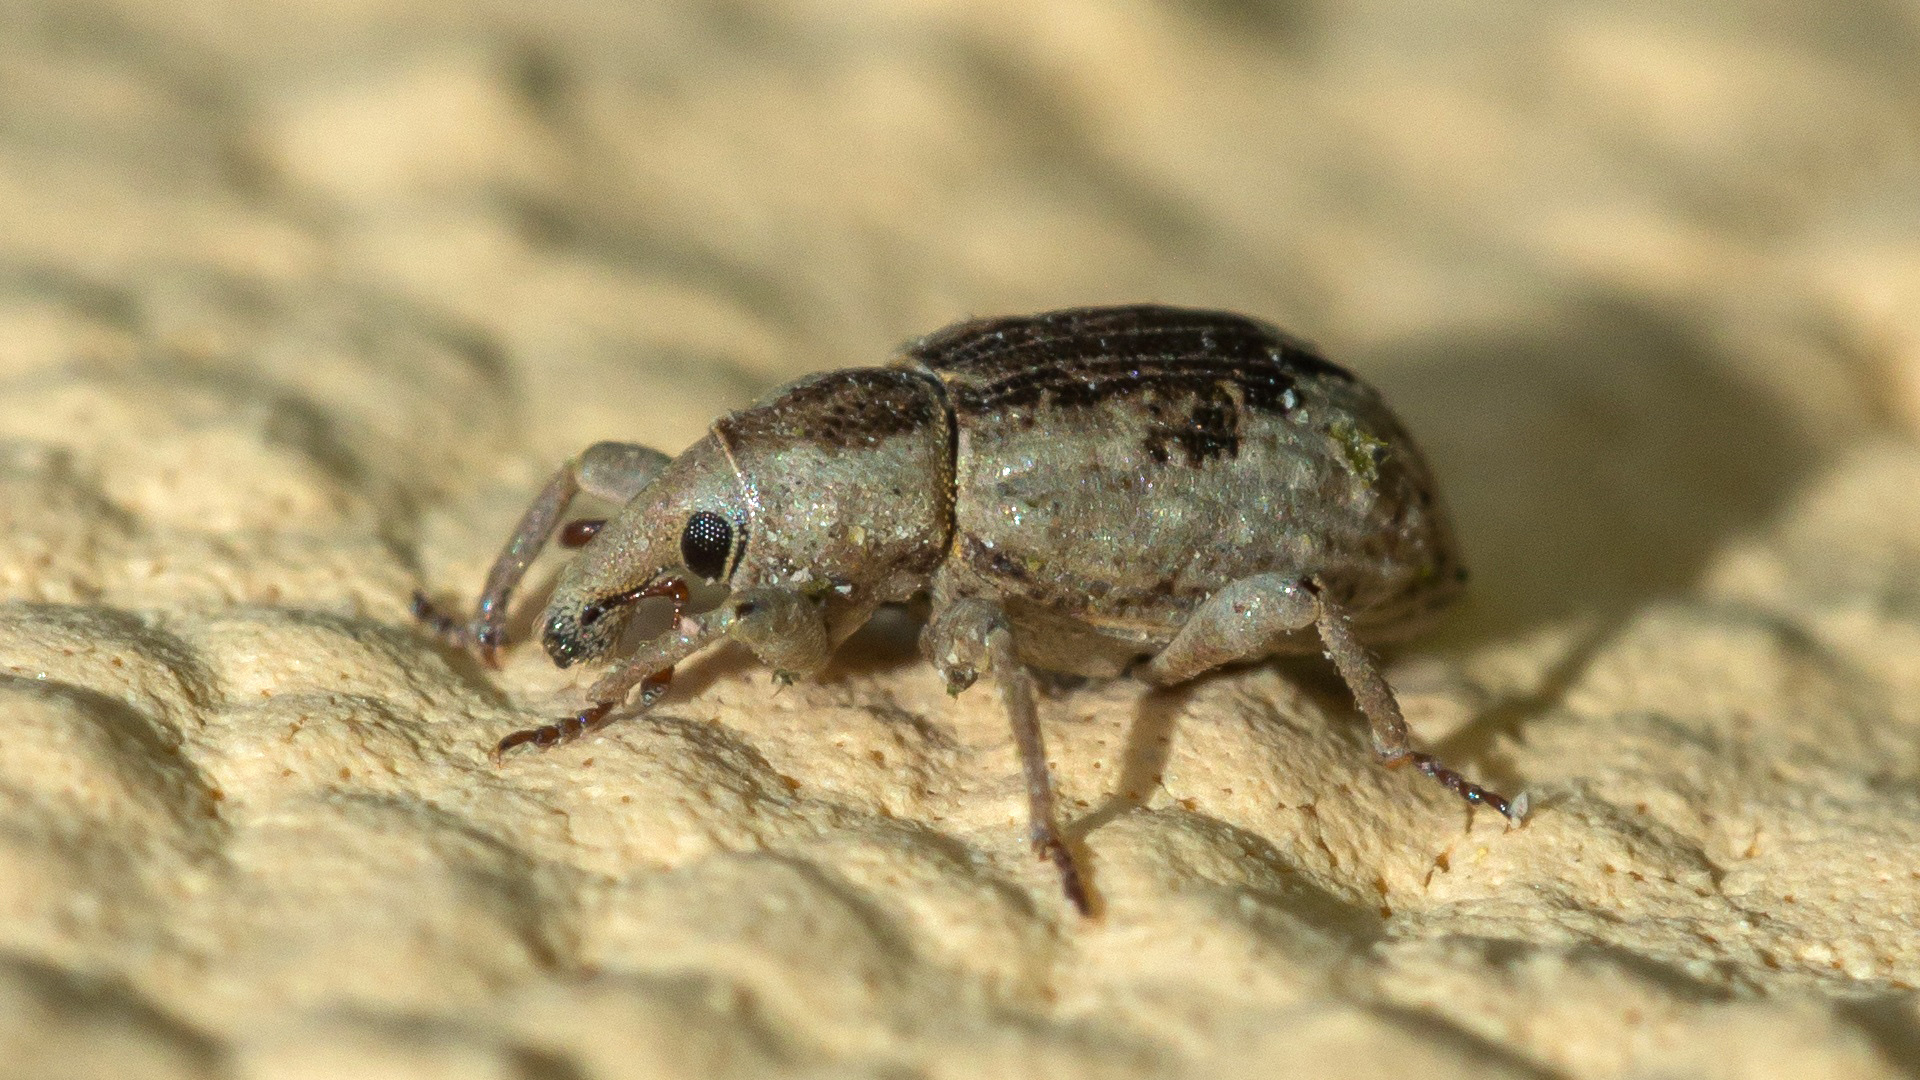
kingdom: Animalia
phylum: Arthropoda
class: Insecta
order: Coleoptera
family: Brachyceridae
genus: Lissorhoptrus
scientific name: Lissorhoptrus oryzophilus
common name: Rice water weevil
